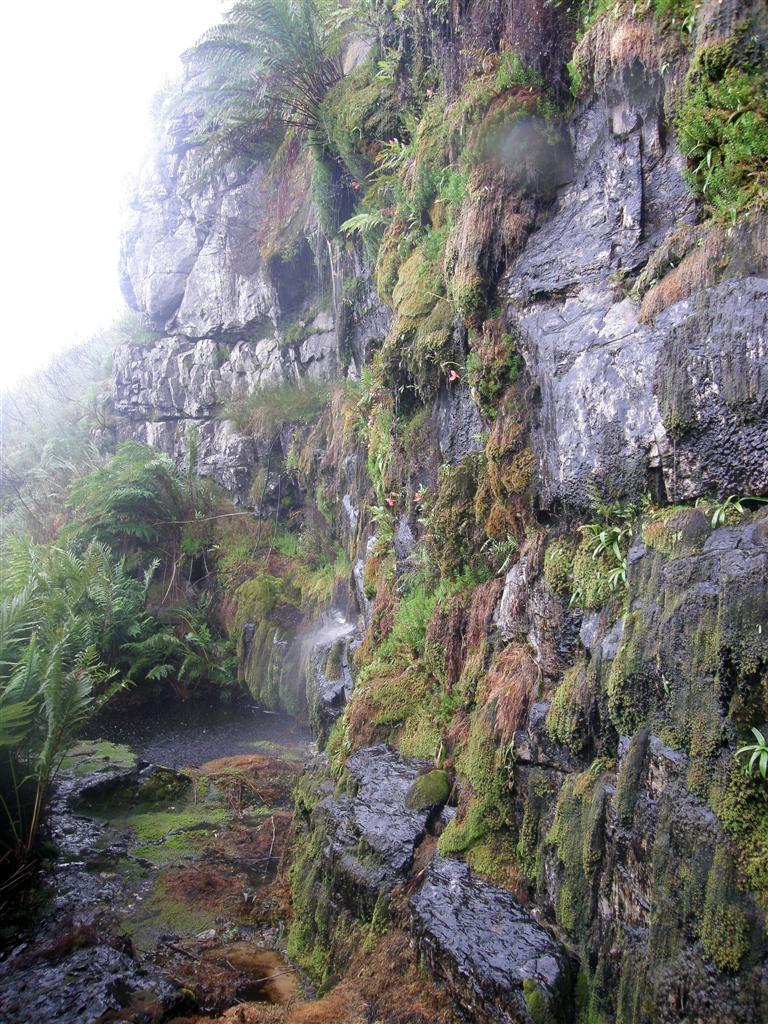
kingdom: Plantae
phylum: Tracheophyta
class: Liliopsida
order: Asparagales
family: Orchidaceae
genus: Disa
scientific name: Disa uniflora
